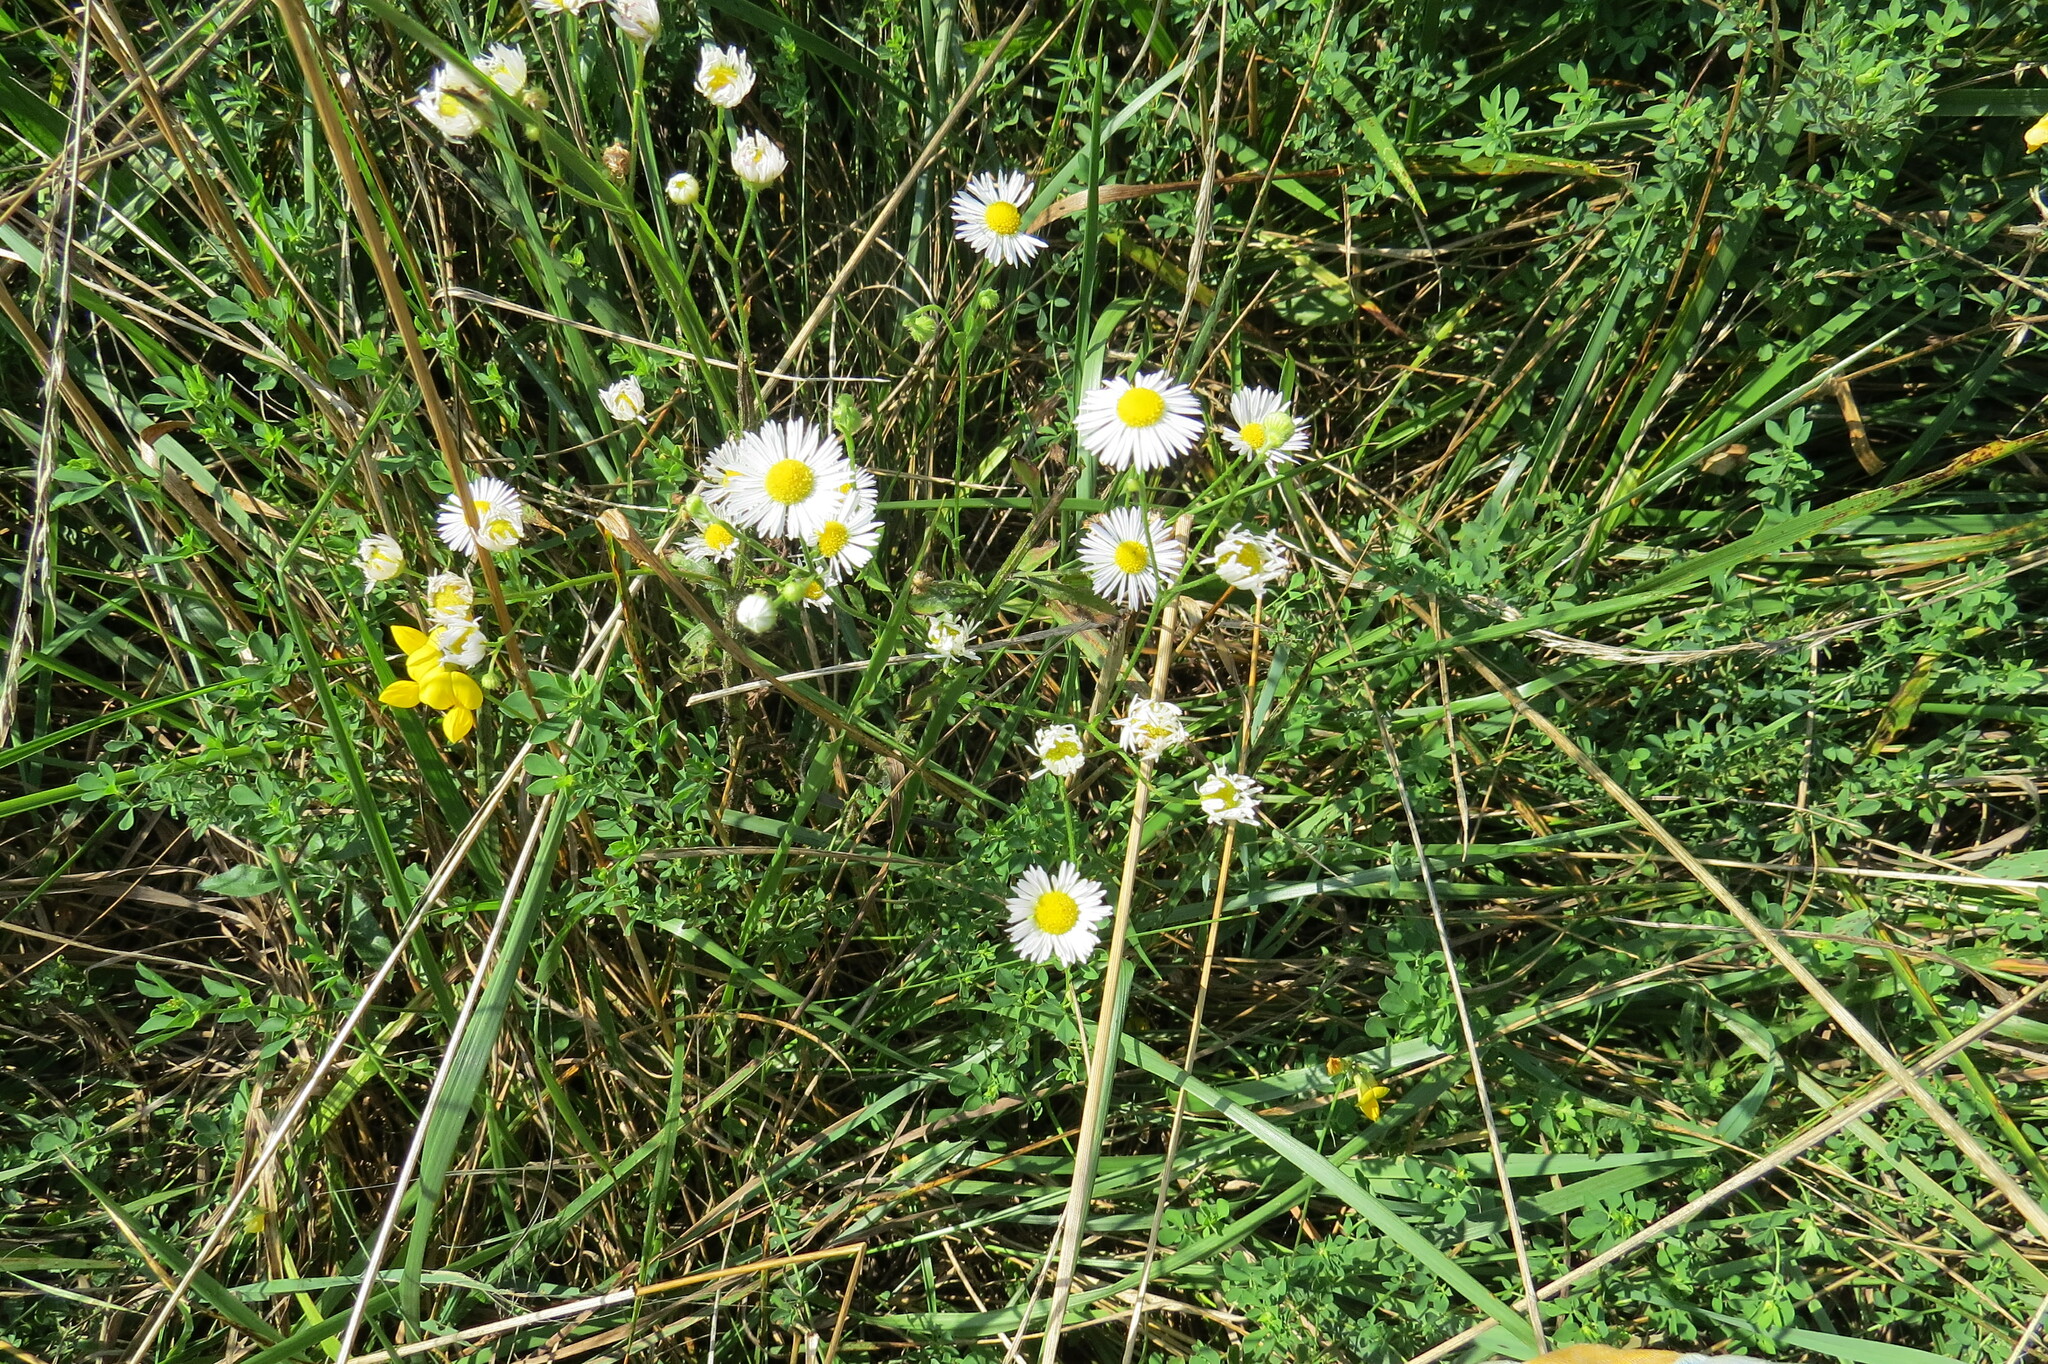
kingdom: Plantae
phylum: Tracheophyta
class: Magnoliopsida
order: Asterales
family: Asteraceae
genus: Erigeron
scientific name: Erigeron strigosus
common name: Common eastern fleabane
